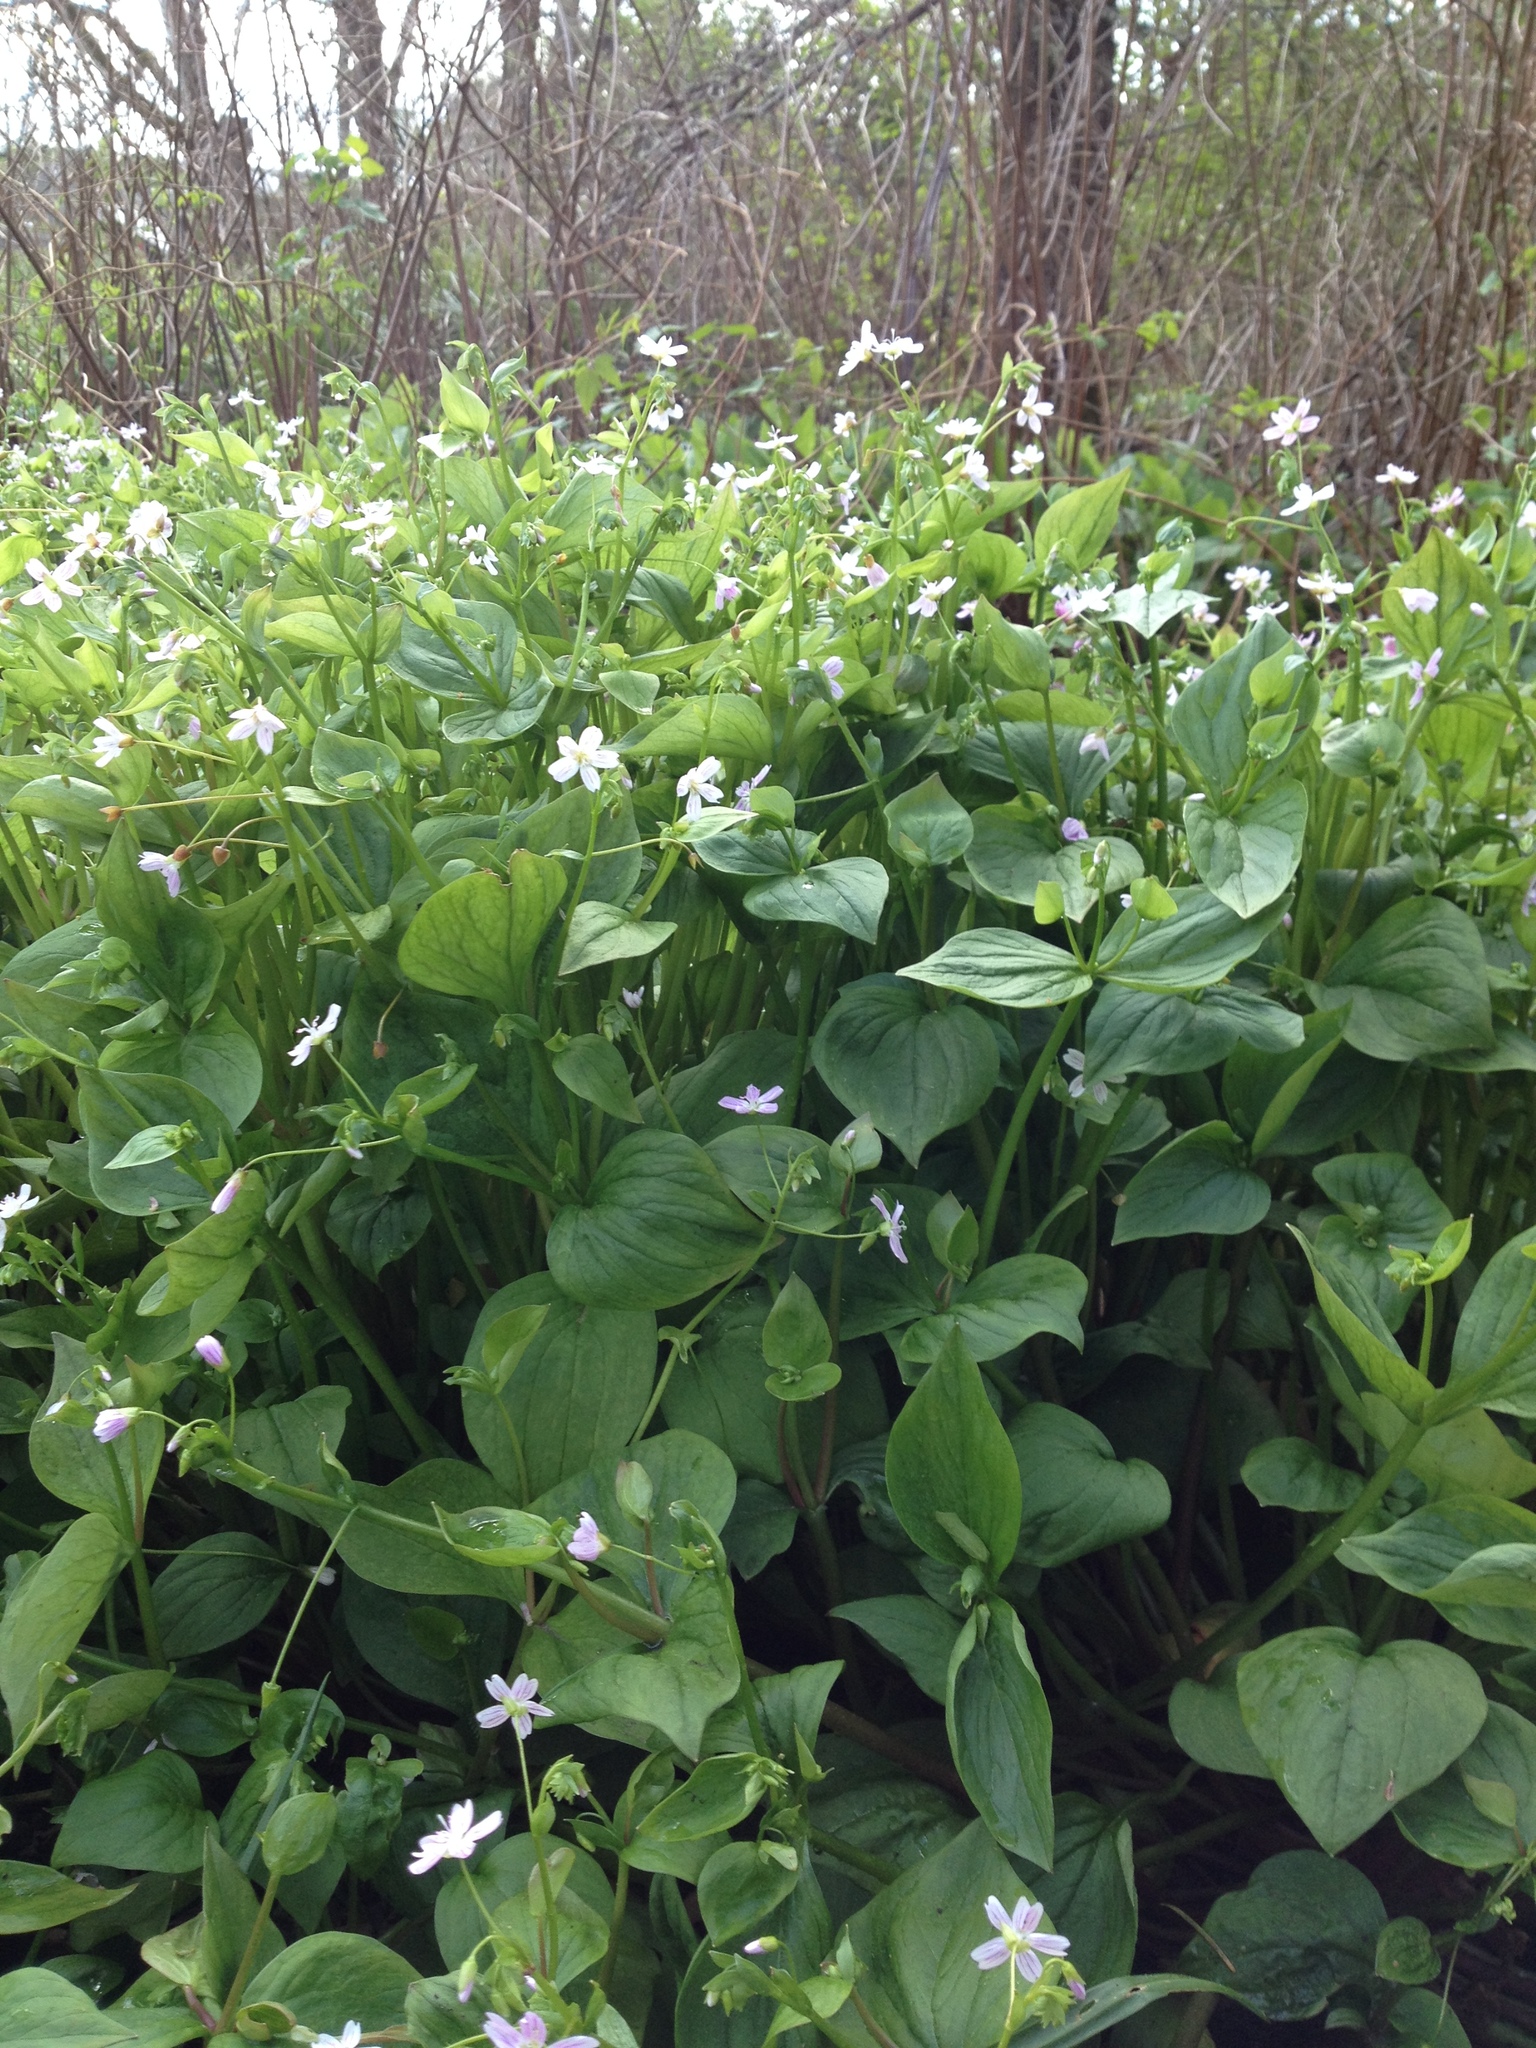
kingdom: Plantae
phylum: Tracheophyta
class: Magnoliopsida
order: Caryophyllales
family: Montiaceae
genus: Claytonia
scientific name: Claytonia sibirica
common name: Pink purslane
